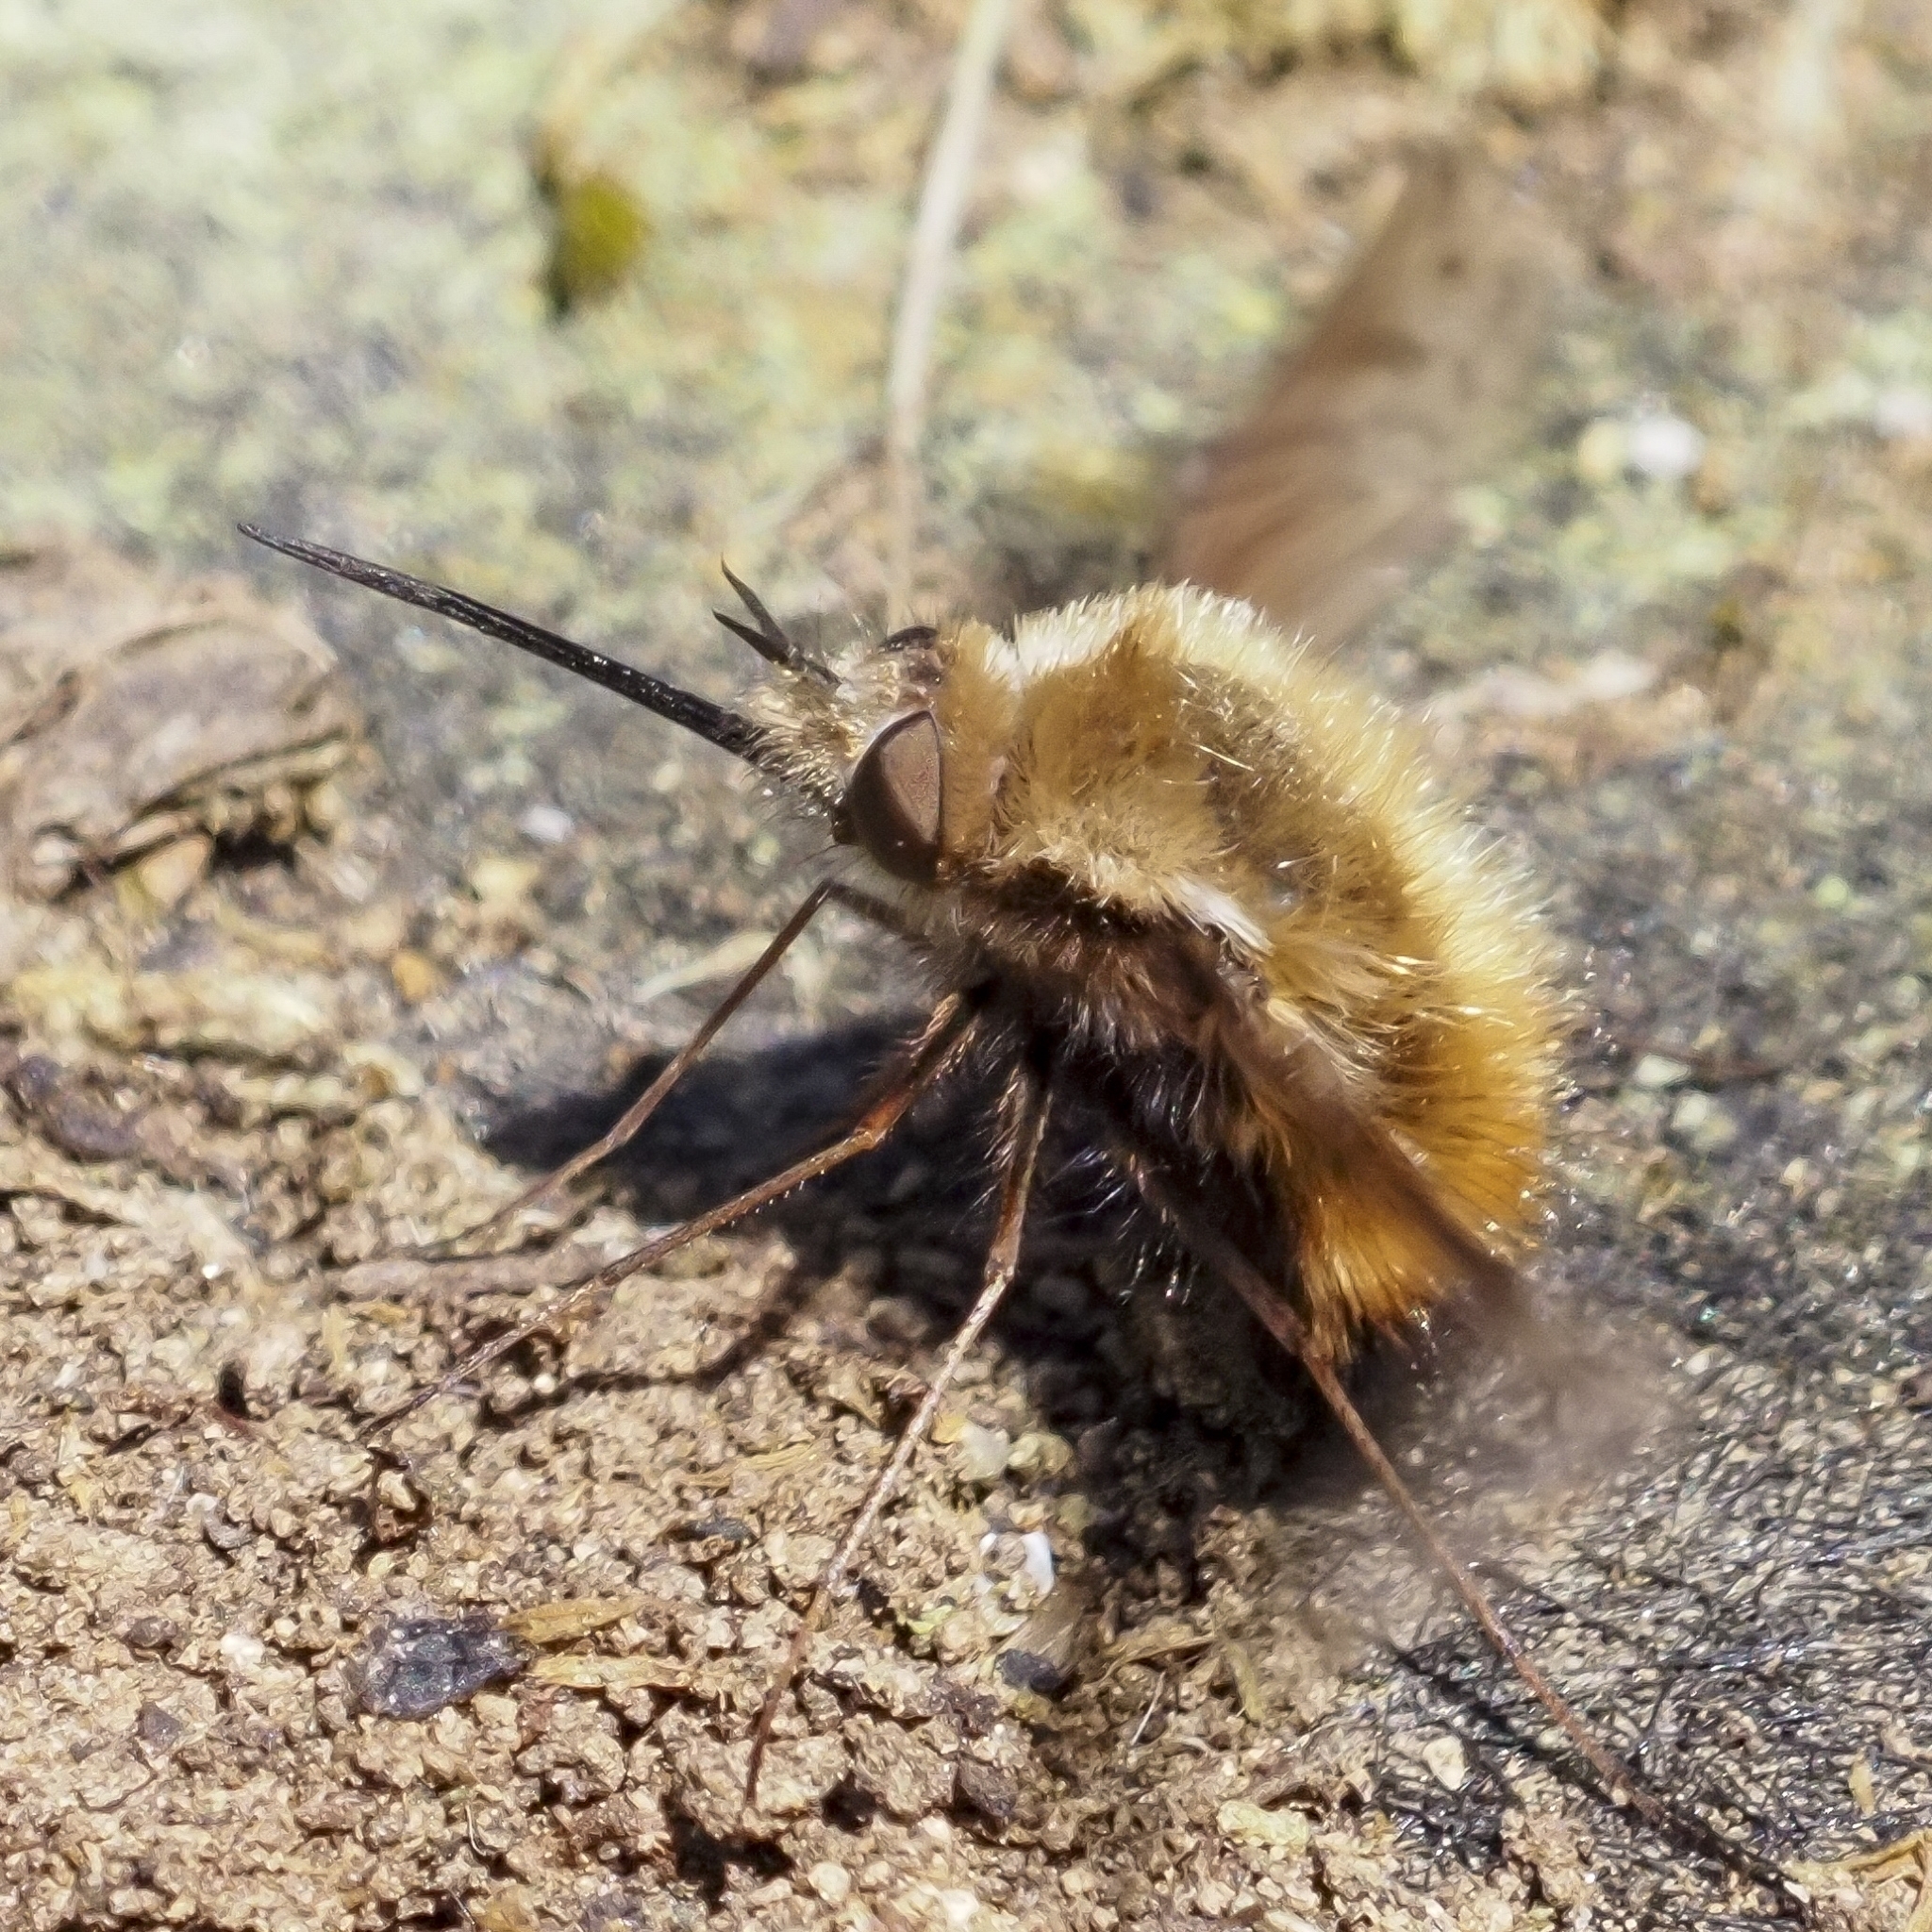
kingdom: Animalia
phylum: Arthropoda
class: Insecta
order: Diptera
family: Bombyliidae
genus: Bombylius
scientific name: Bombylius major
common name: Bee fly
